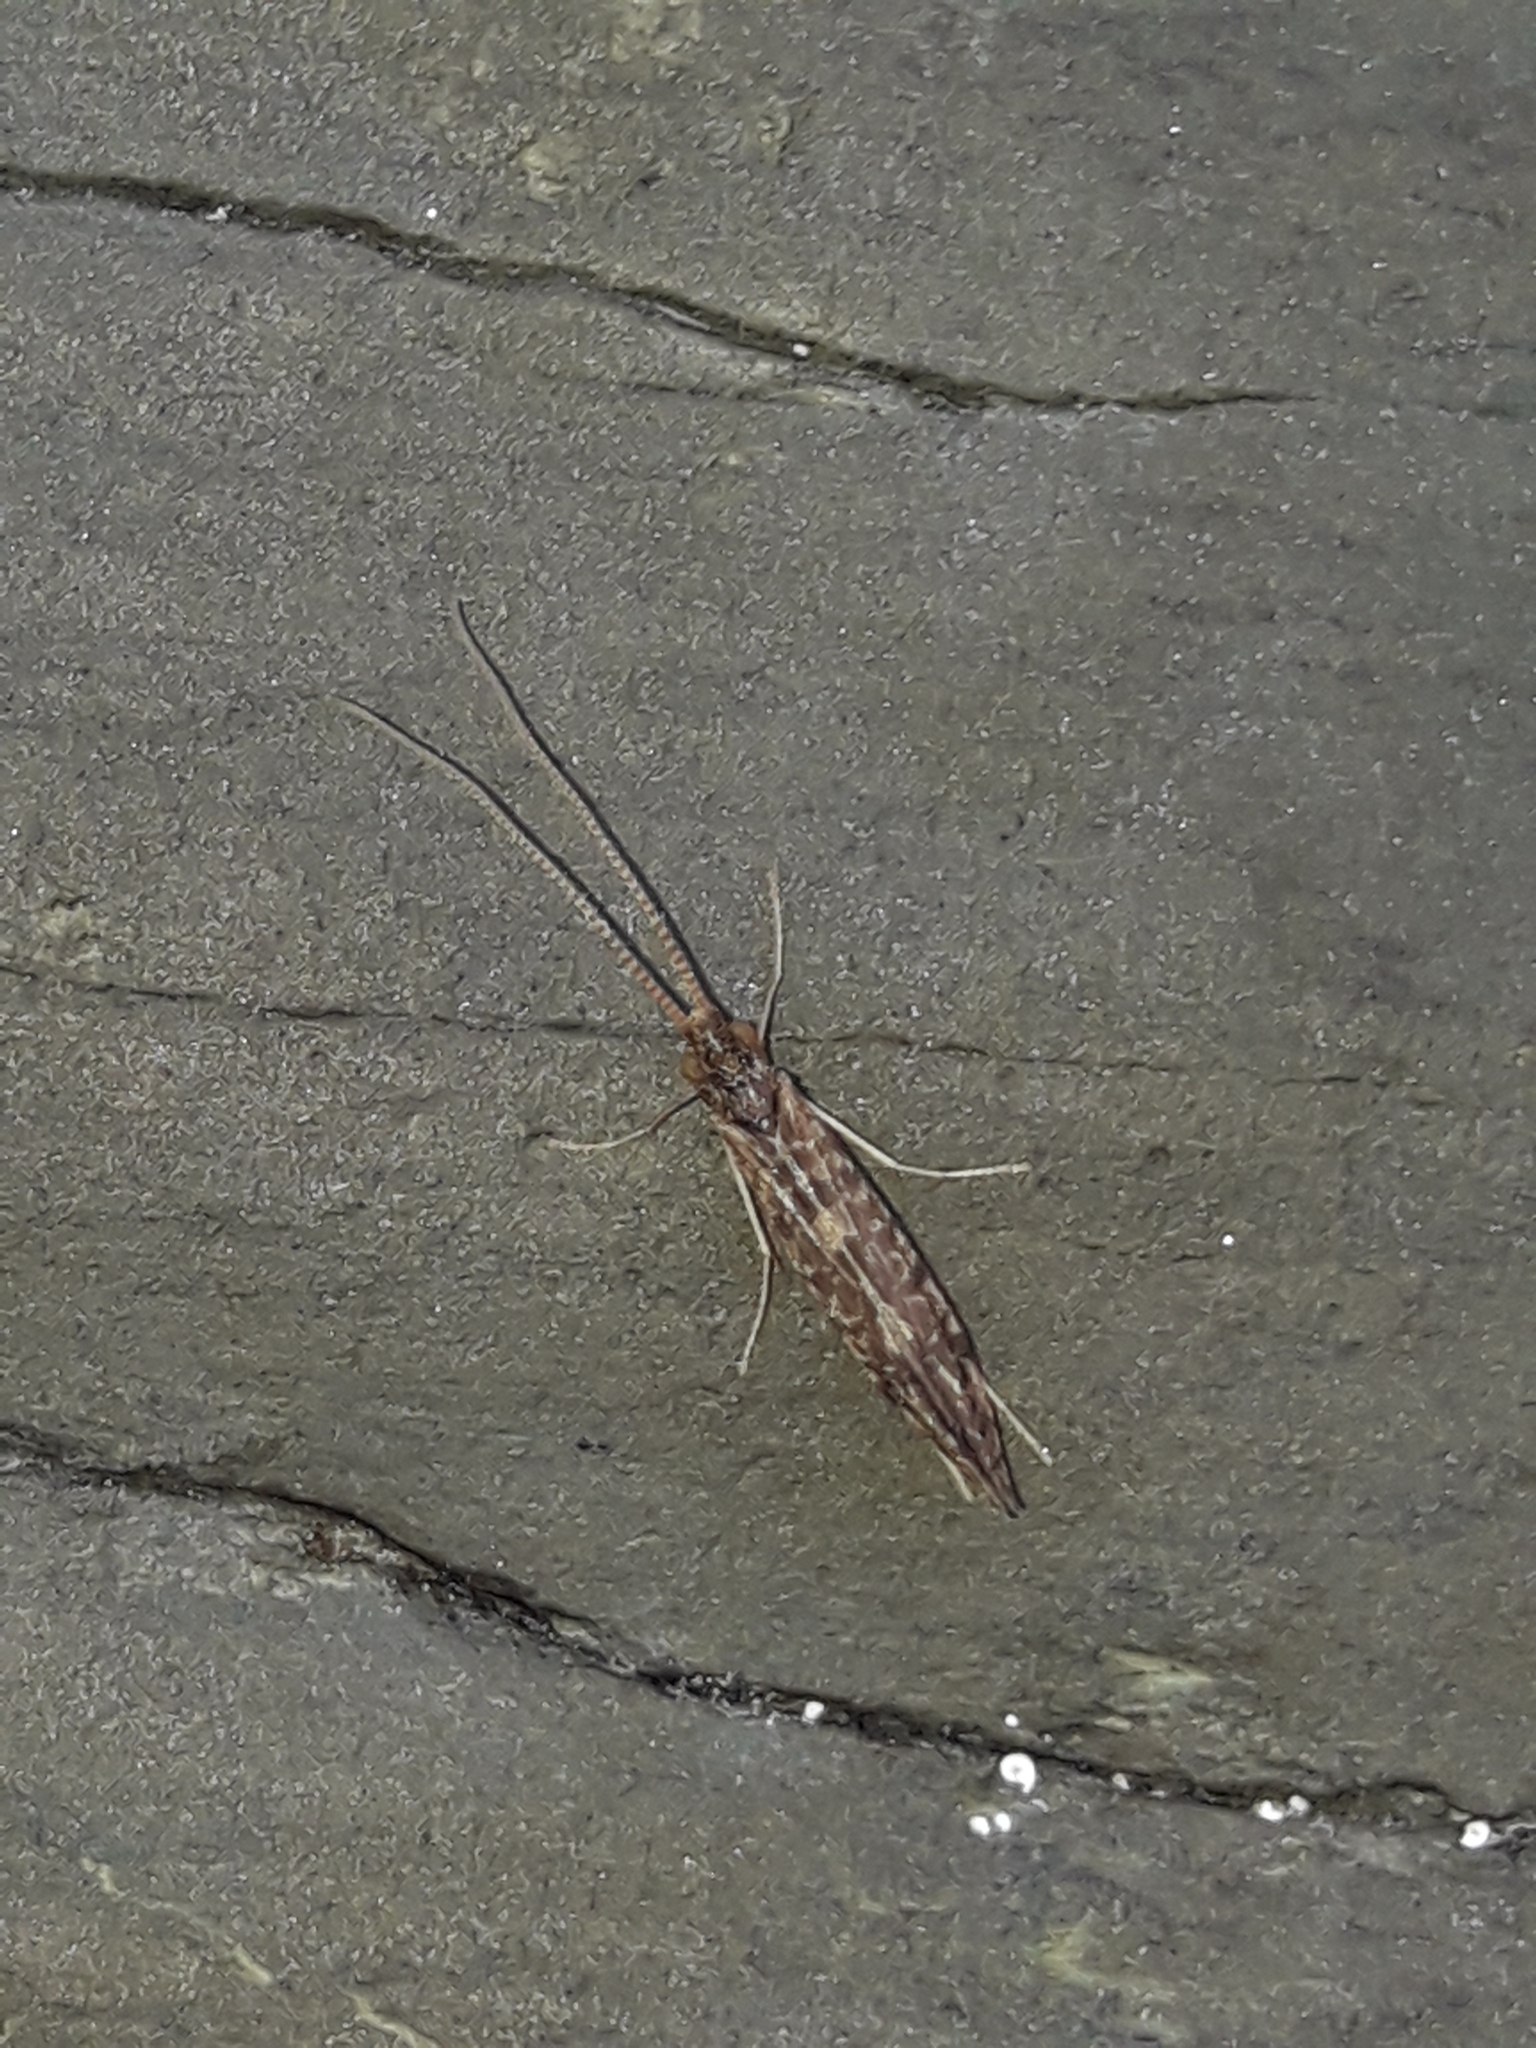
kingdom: Animalia
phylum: Arthropoda
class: Insecta
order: Trichoptera
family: Chathamiidae
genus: Philanisus
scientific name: Philanisus plebeius
